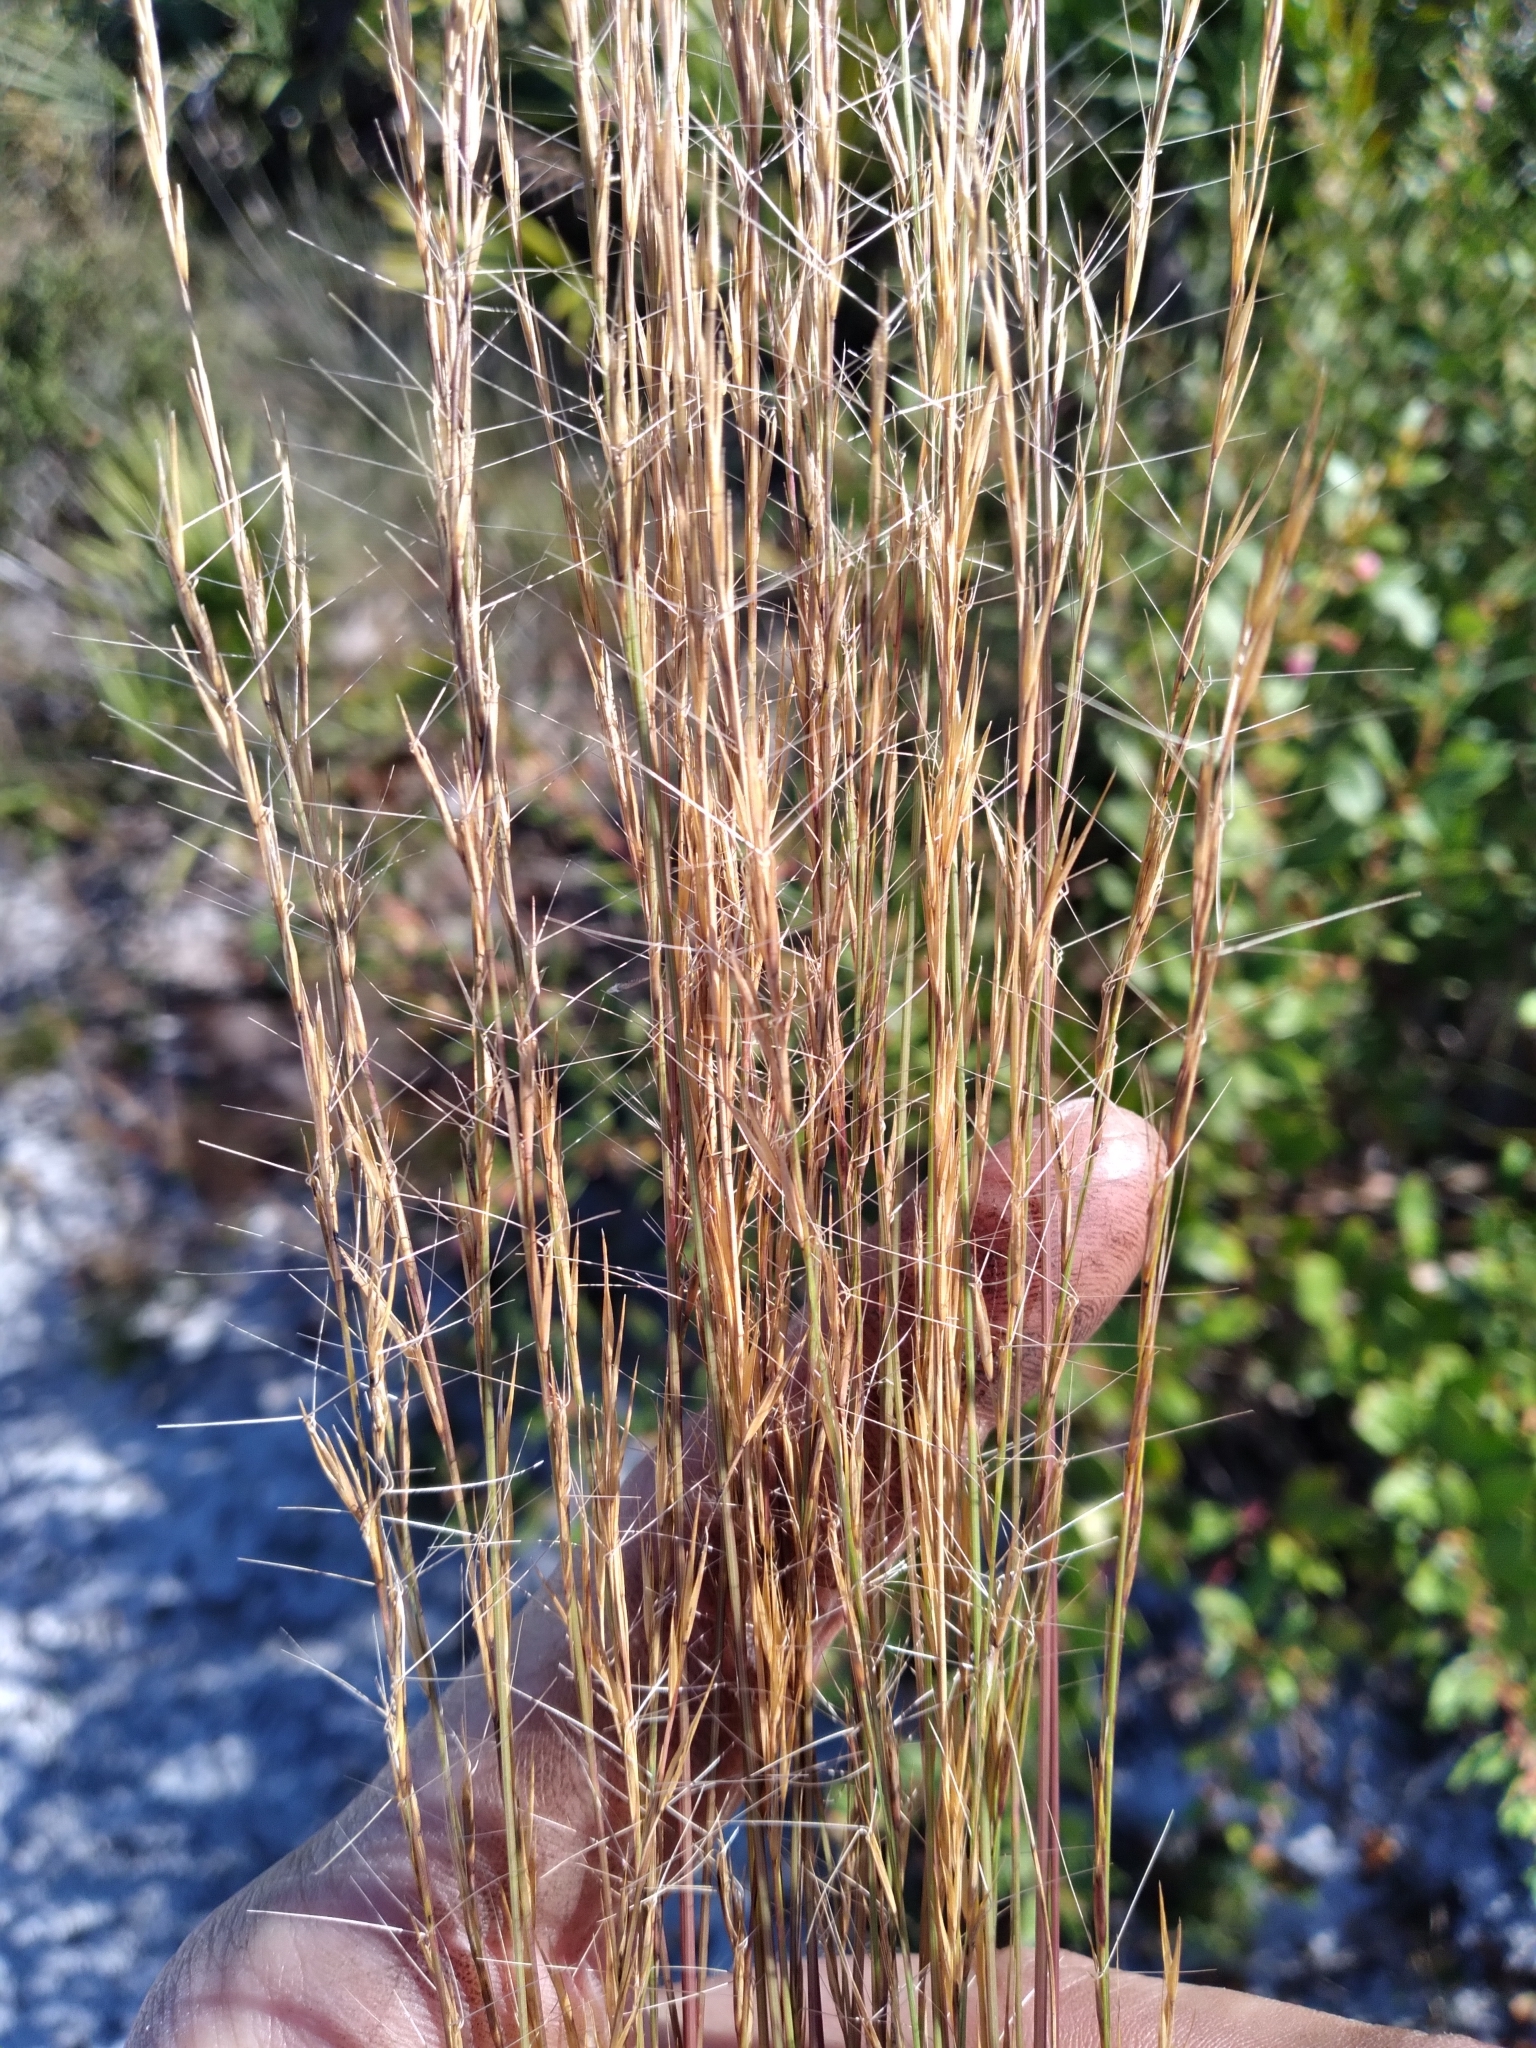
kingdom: Plantae
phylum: Tracheophyta
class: Liliopsida
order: Poales
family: Poaceae
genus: Aristida
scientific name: Aristida purpurascens
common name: Arrow-feather
